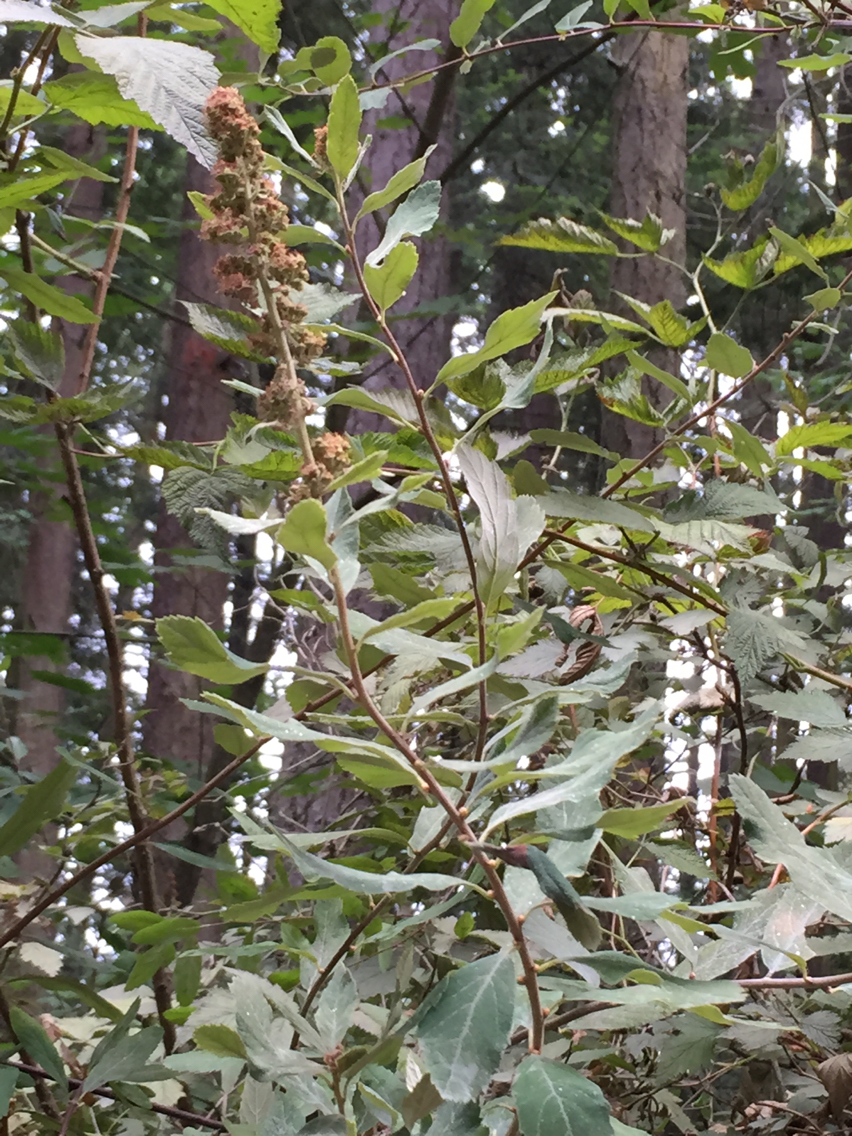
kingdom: Plantae
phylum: Tracheophyta
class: Magnoliopsida
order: Rosales
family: Rosaceae
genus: Spiraea
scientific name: Spiraea douglasii
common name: Steeplebush
